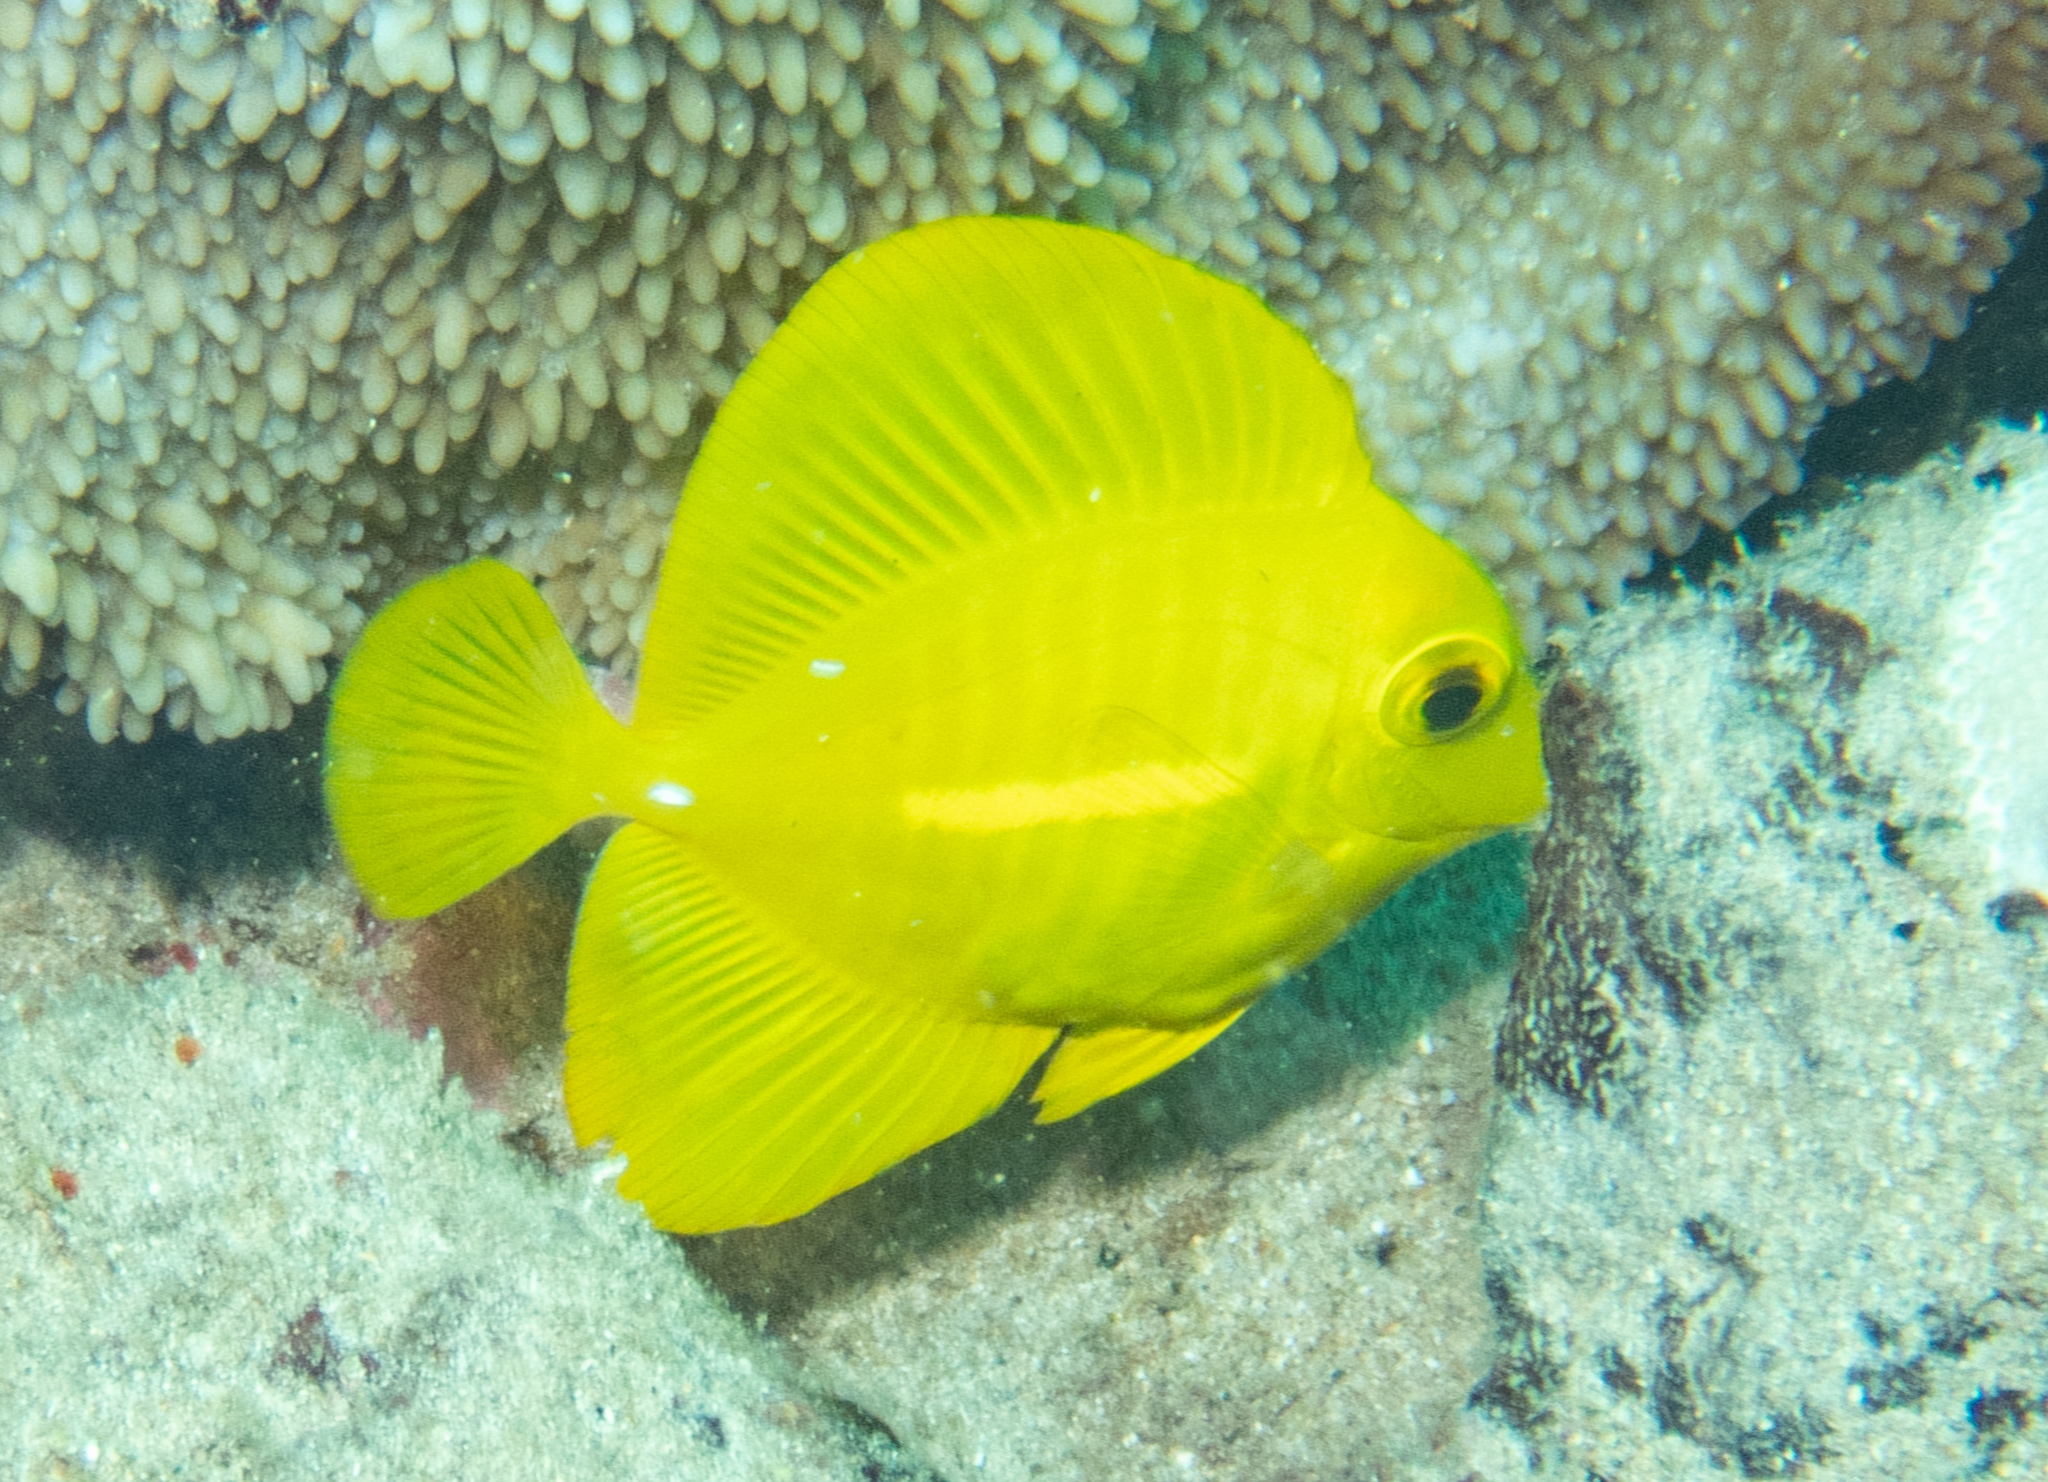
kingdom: Animalia
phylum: Chordata
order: Perciformes
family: Acanthuridae
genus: Zebrasoma
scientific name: Zebrasoma flavescens
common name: Yellow tang
